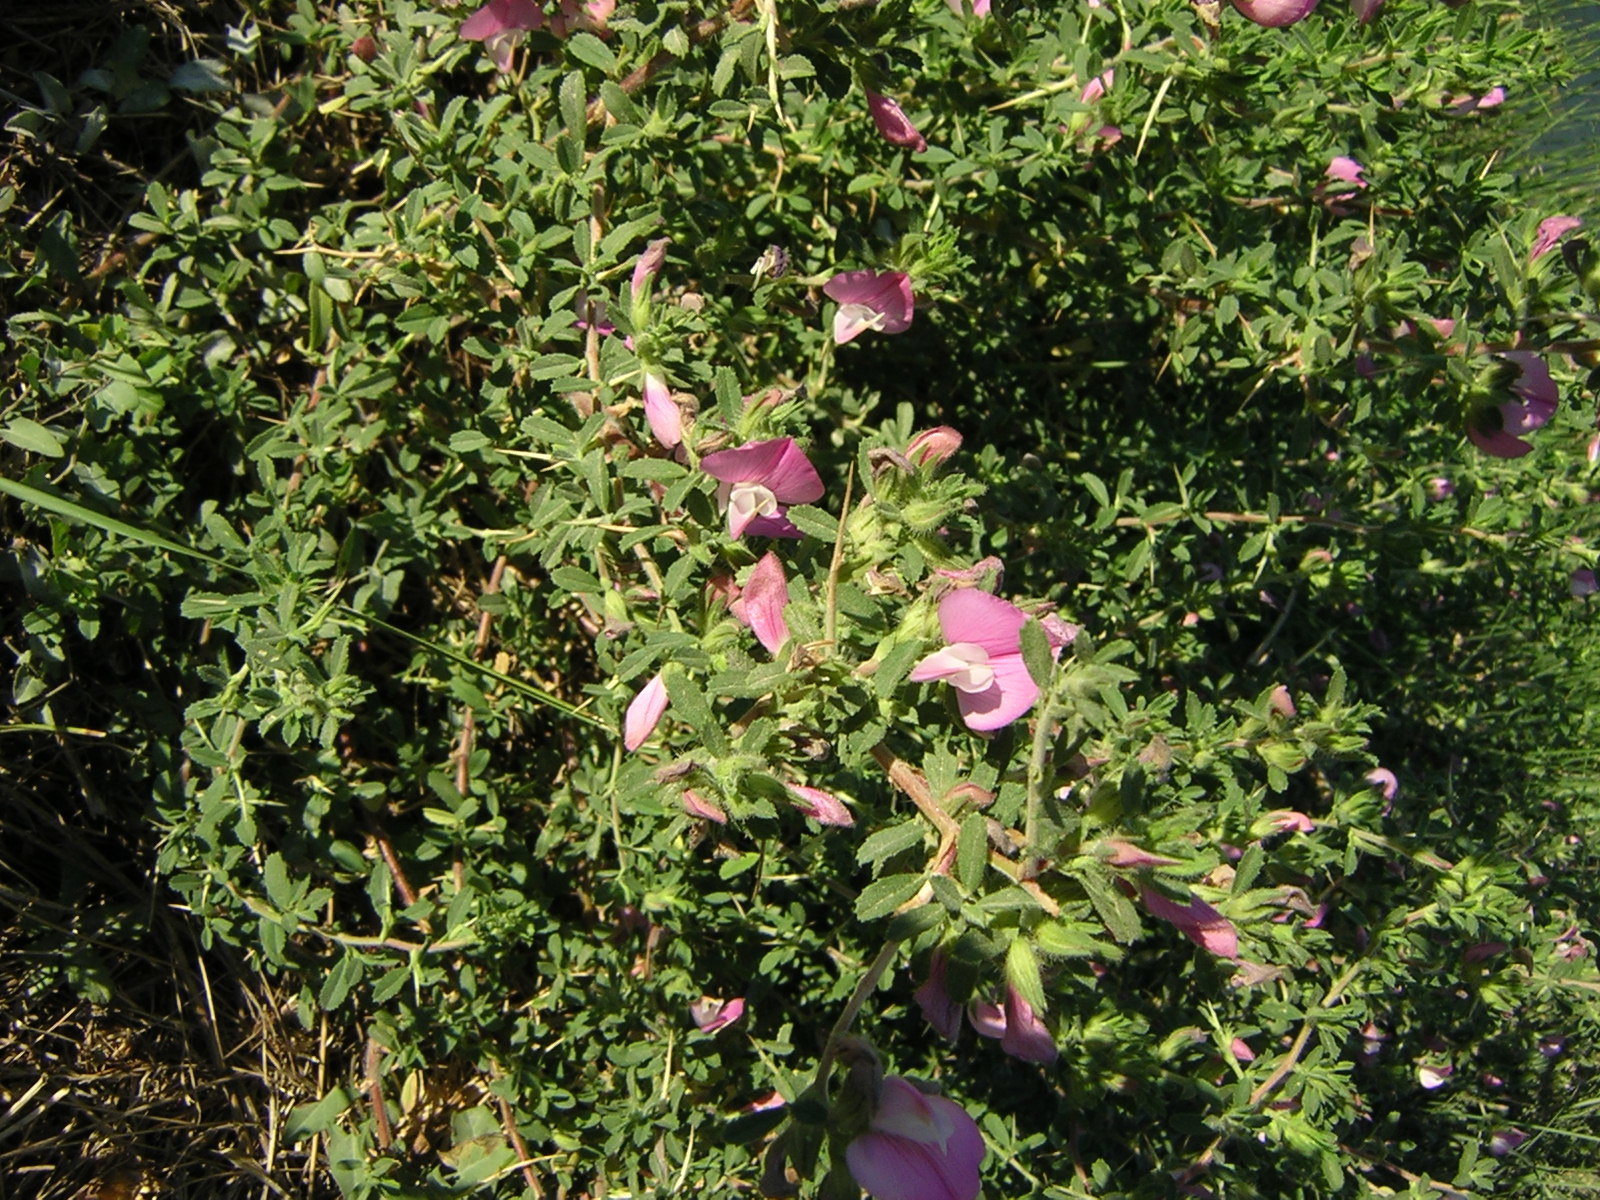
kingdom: Plantae
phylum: Tracheophyta
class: Magnoliopsida
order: Fabales
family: Fabaceae
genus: Ononis
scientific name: Ononis spinosa
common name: Spiny restharrow
